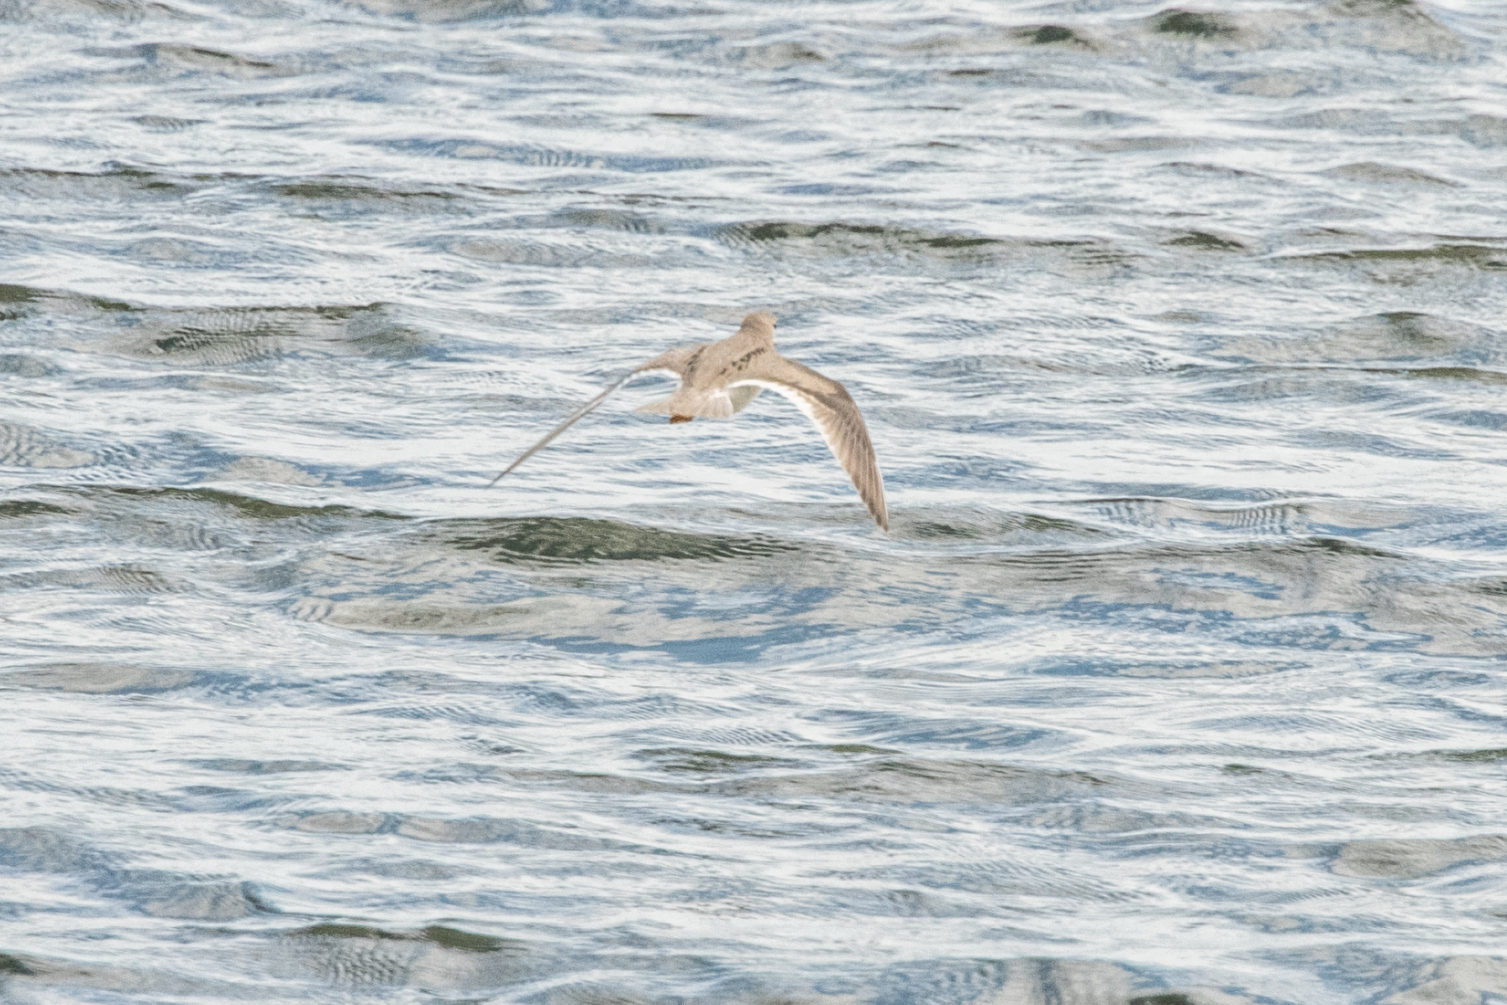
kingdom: Animalia
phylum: Chordata
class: Aves
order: Charadriiformes
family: Scolopacidae
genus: Xenus
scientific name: Xenus cinereus
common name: Terek sandpiper
